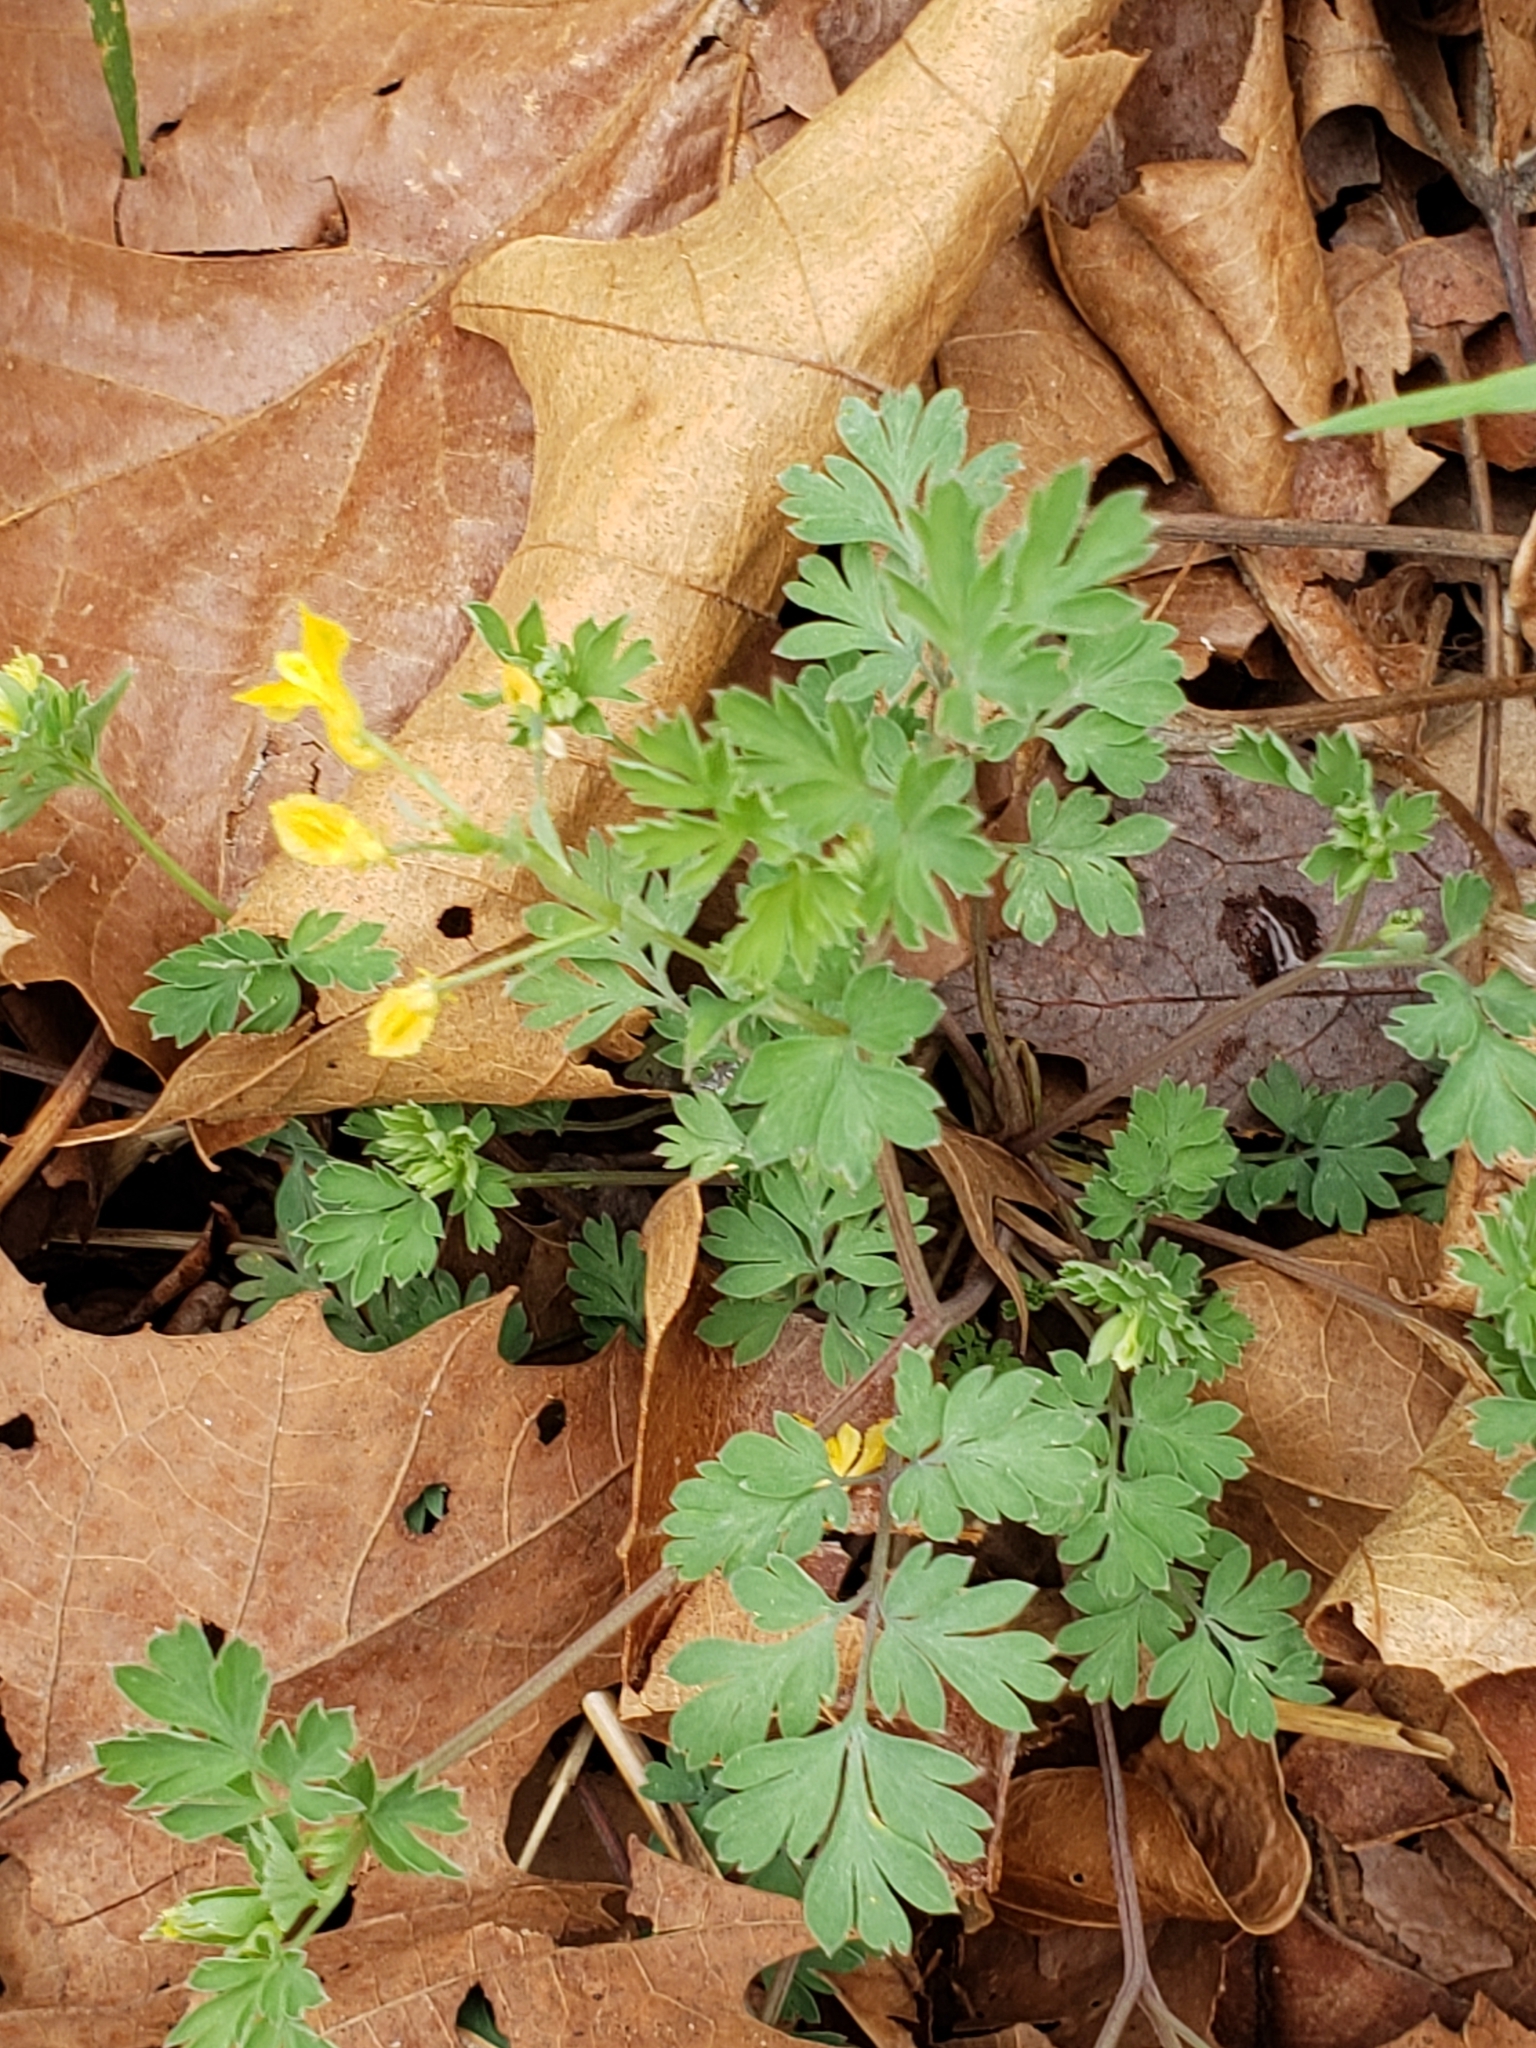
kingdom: Plantae
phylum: Tracheophyta
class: Magnoliopsida
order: Ranunculales
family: Papaveraceae
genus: Corydalis
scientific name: Corydalis flavula
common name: Yellow corydalis
